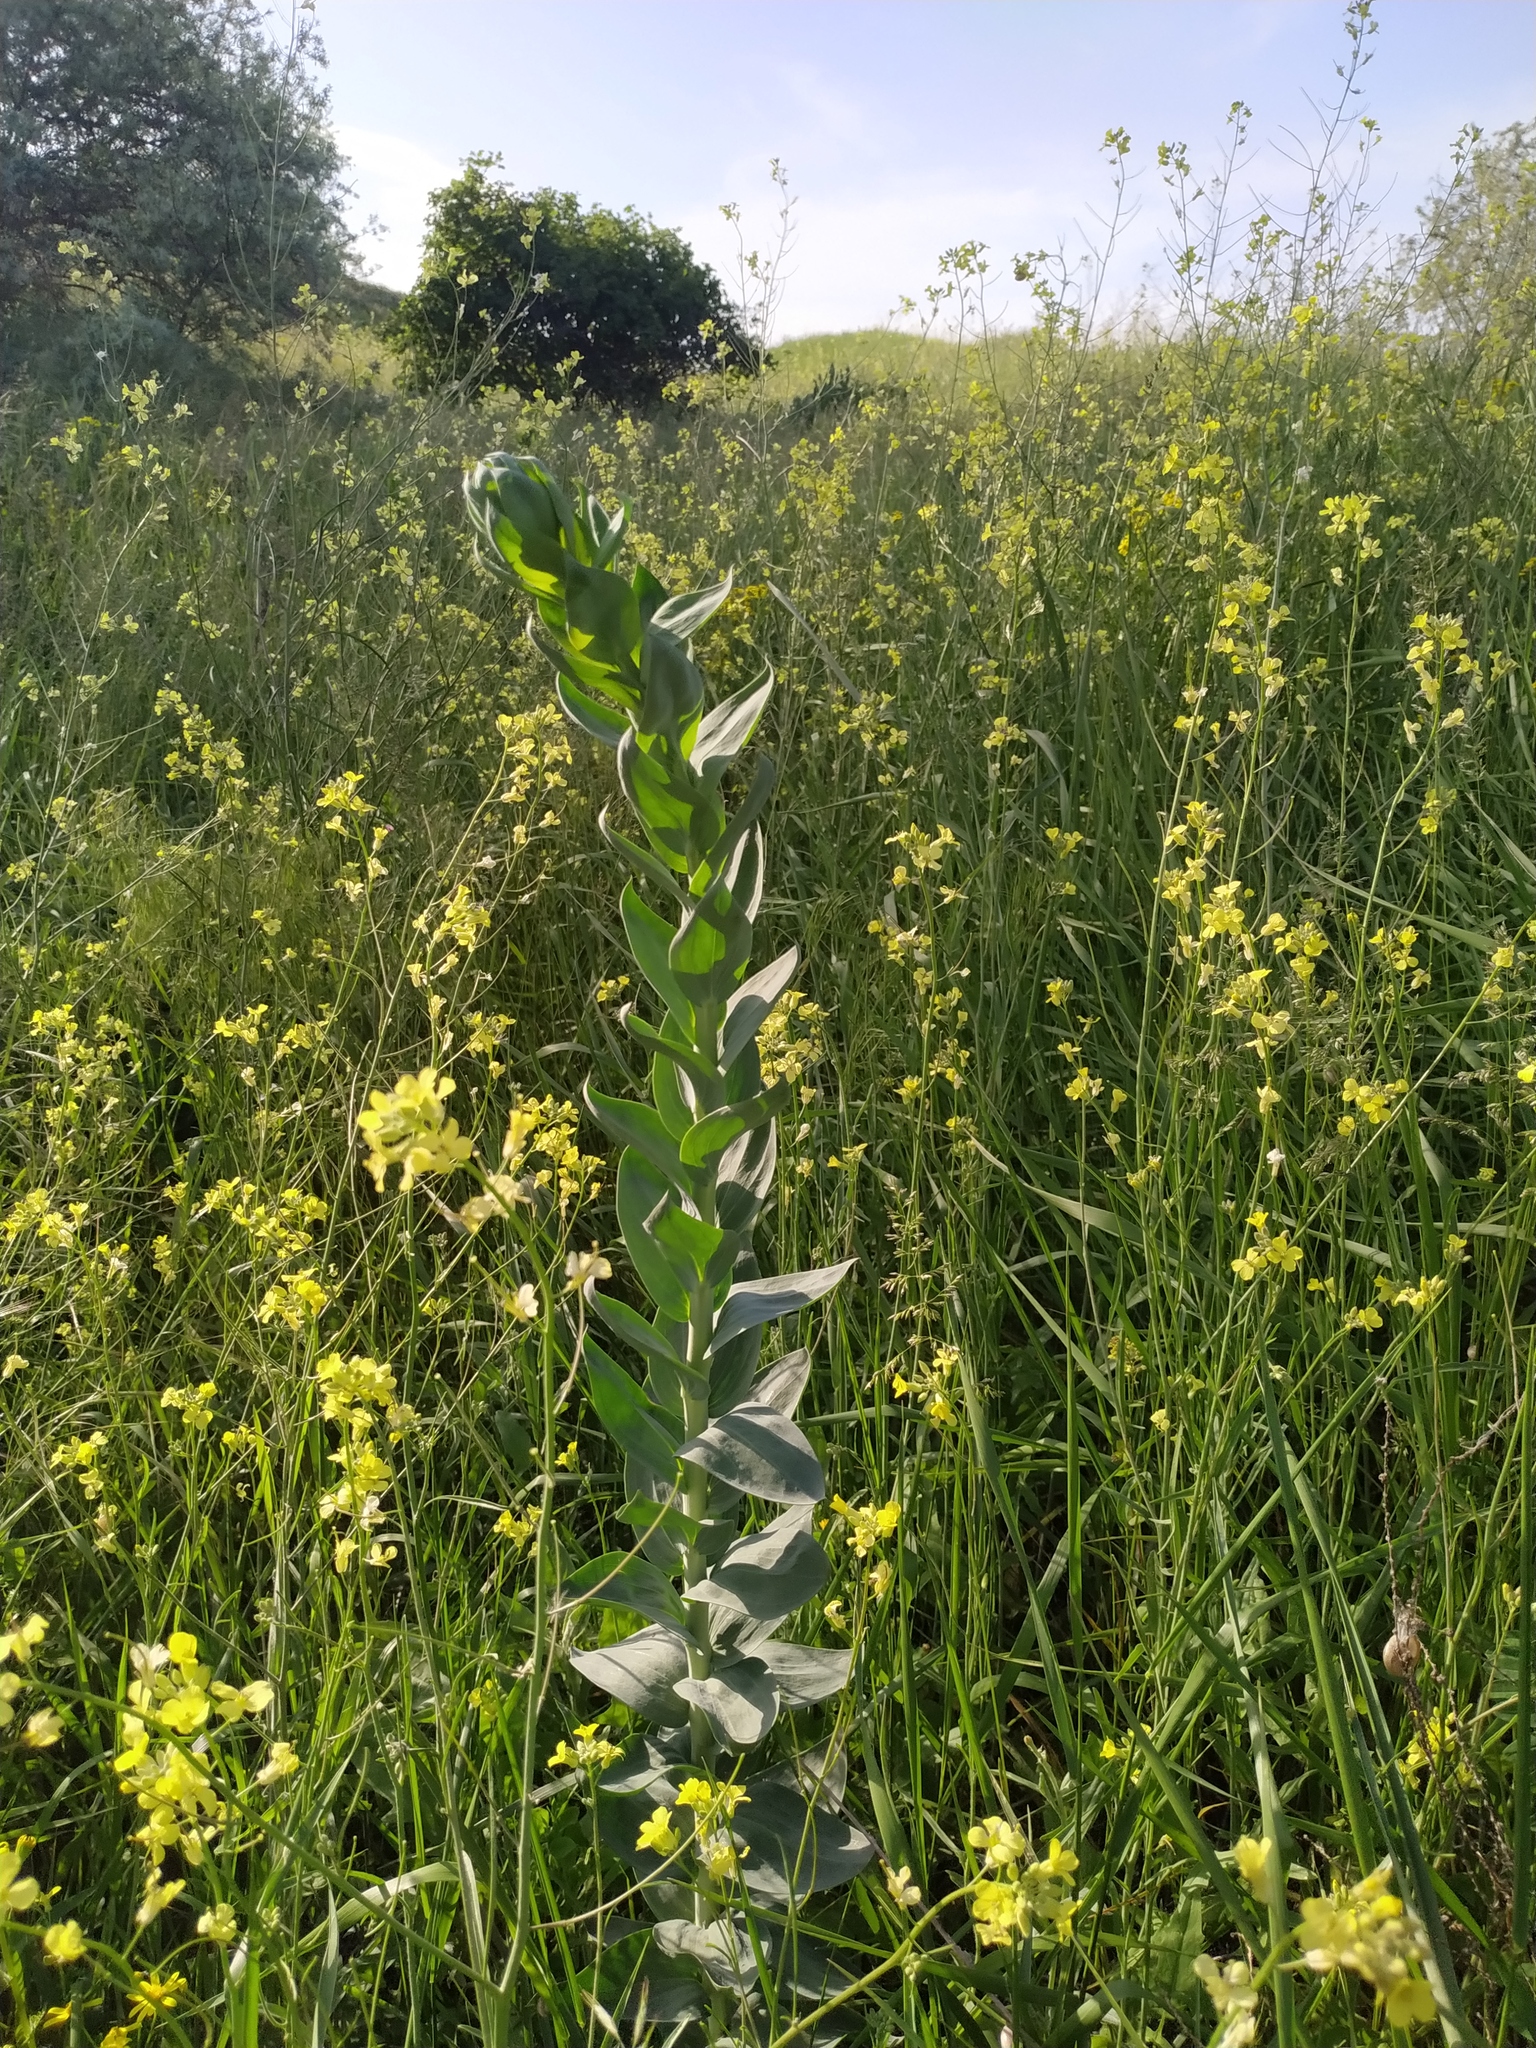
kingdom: Plantae
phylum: Tracheophyta
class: Magnoliopsida
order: Lamiales
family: Plantaginaceae
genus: Linaria
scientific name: Linaria genistifolia
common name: Broomleaf toadflax
